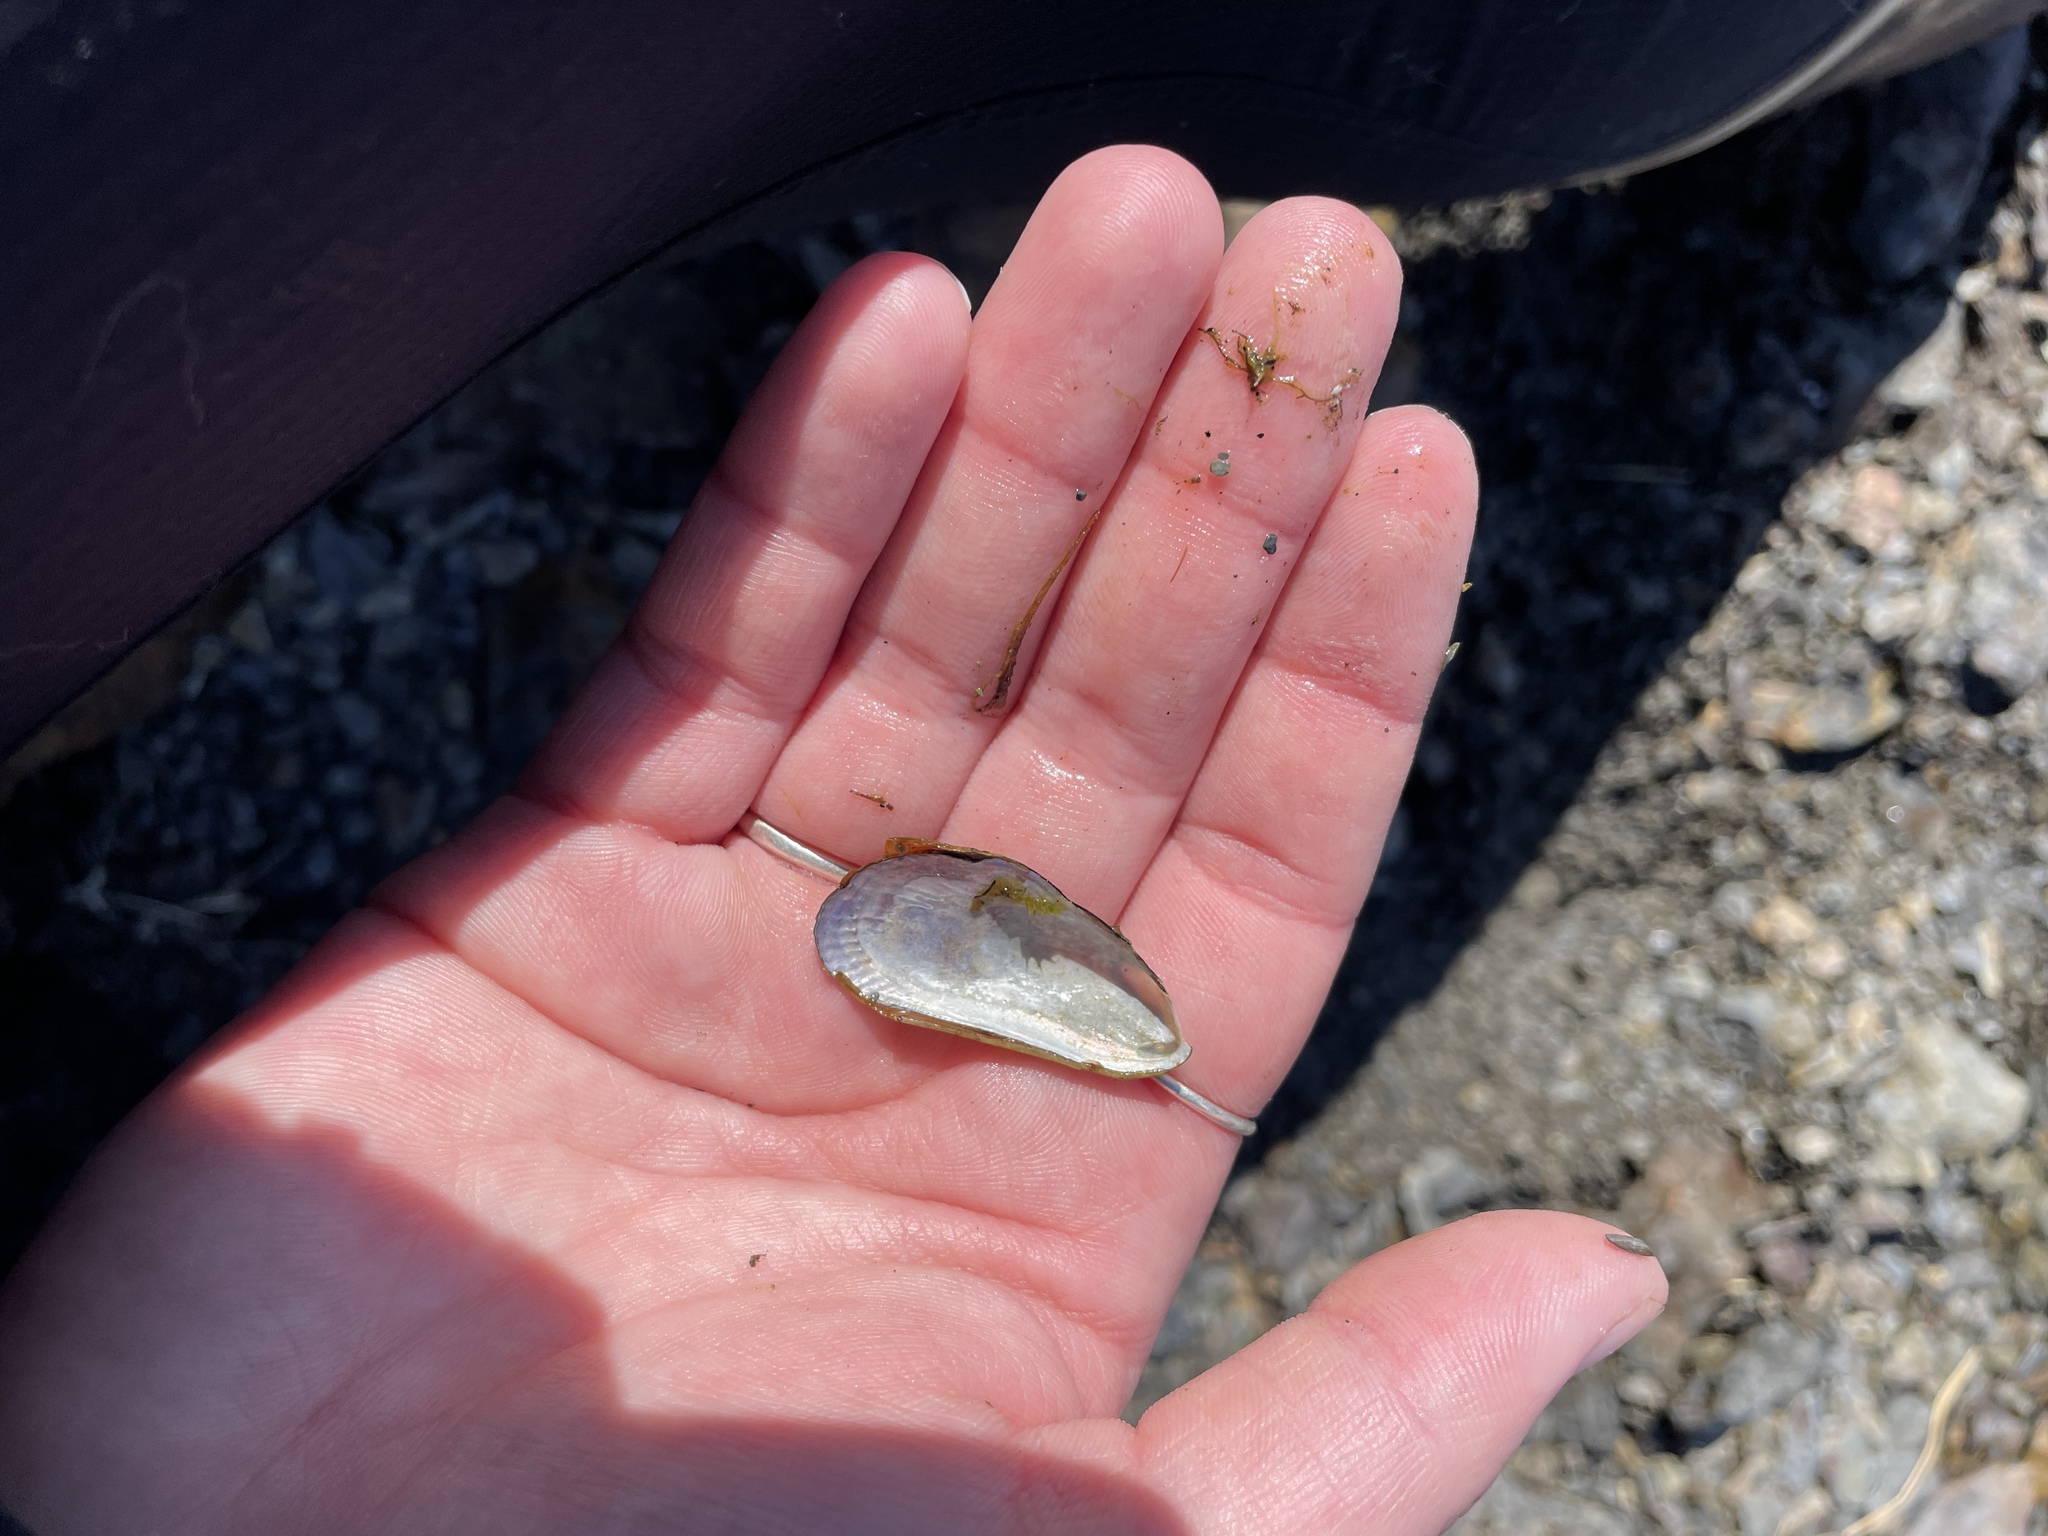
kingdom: Animalia
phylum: Mollusca
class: Bivalvia
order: Mytilida
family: Mytilidae
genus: Geukensia
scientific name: Geukensia demissa
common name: Ribbed mussel
